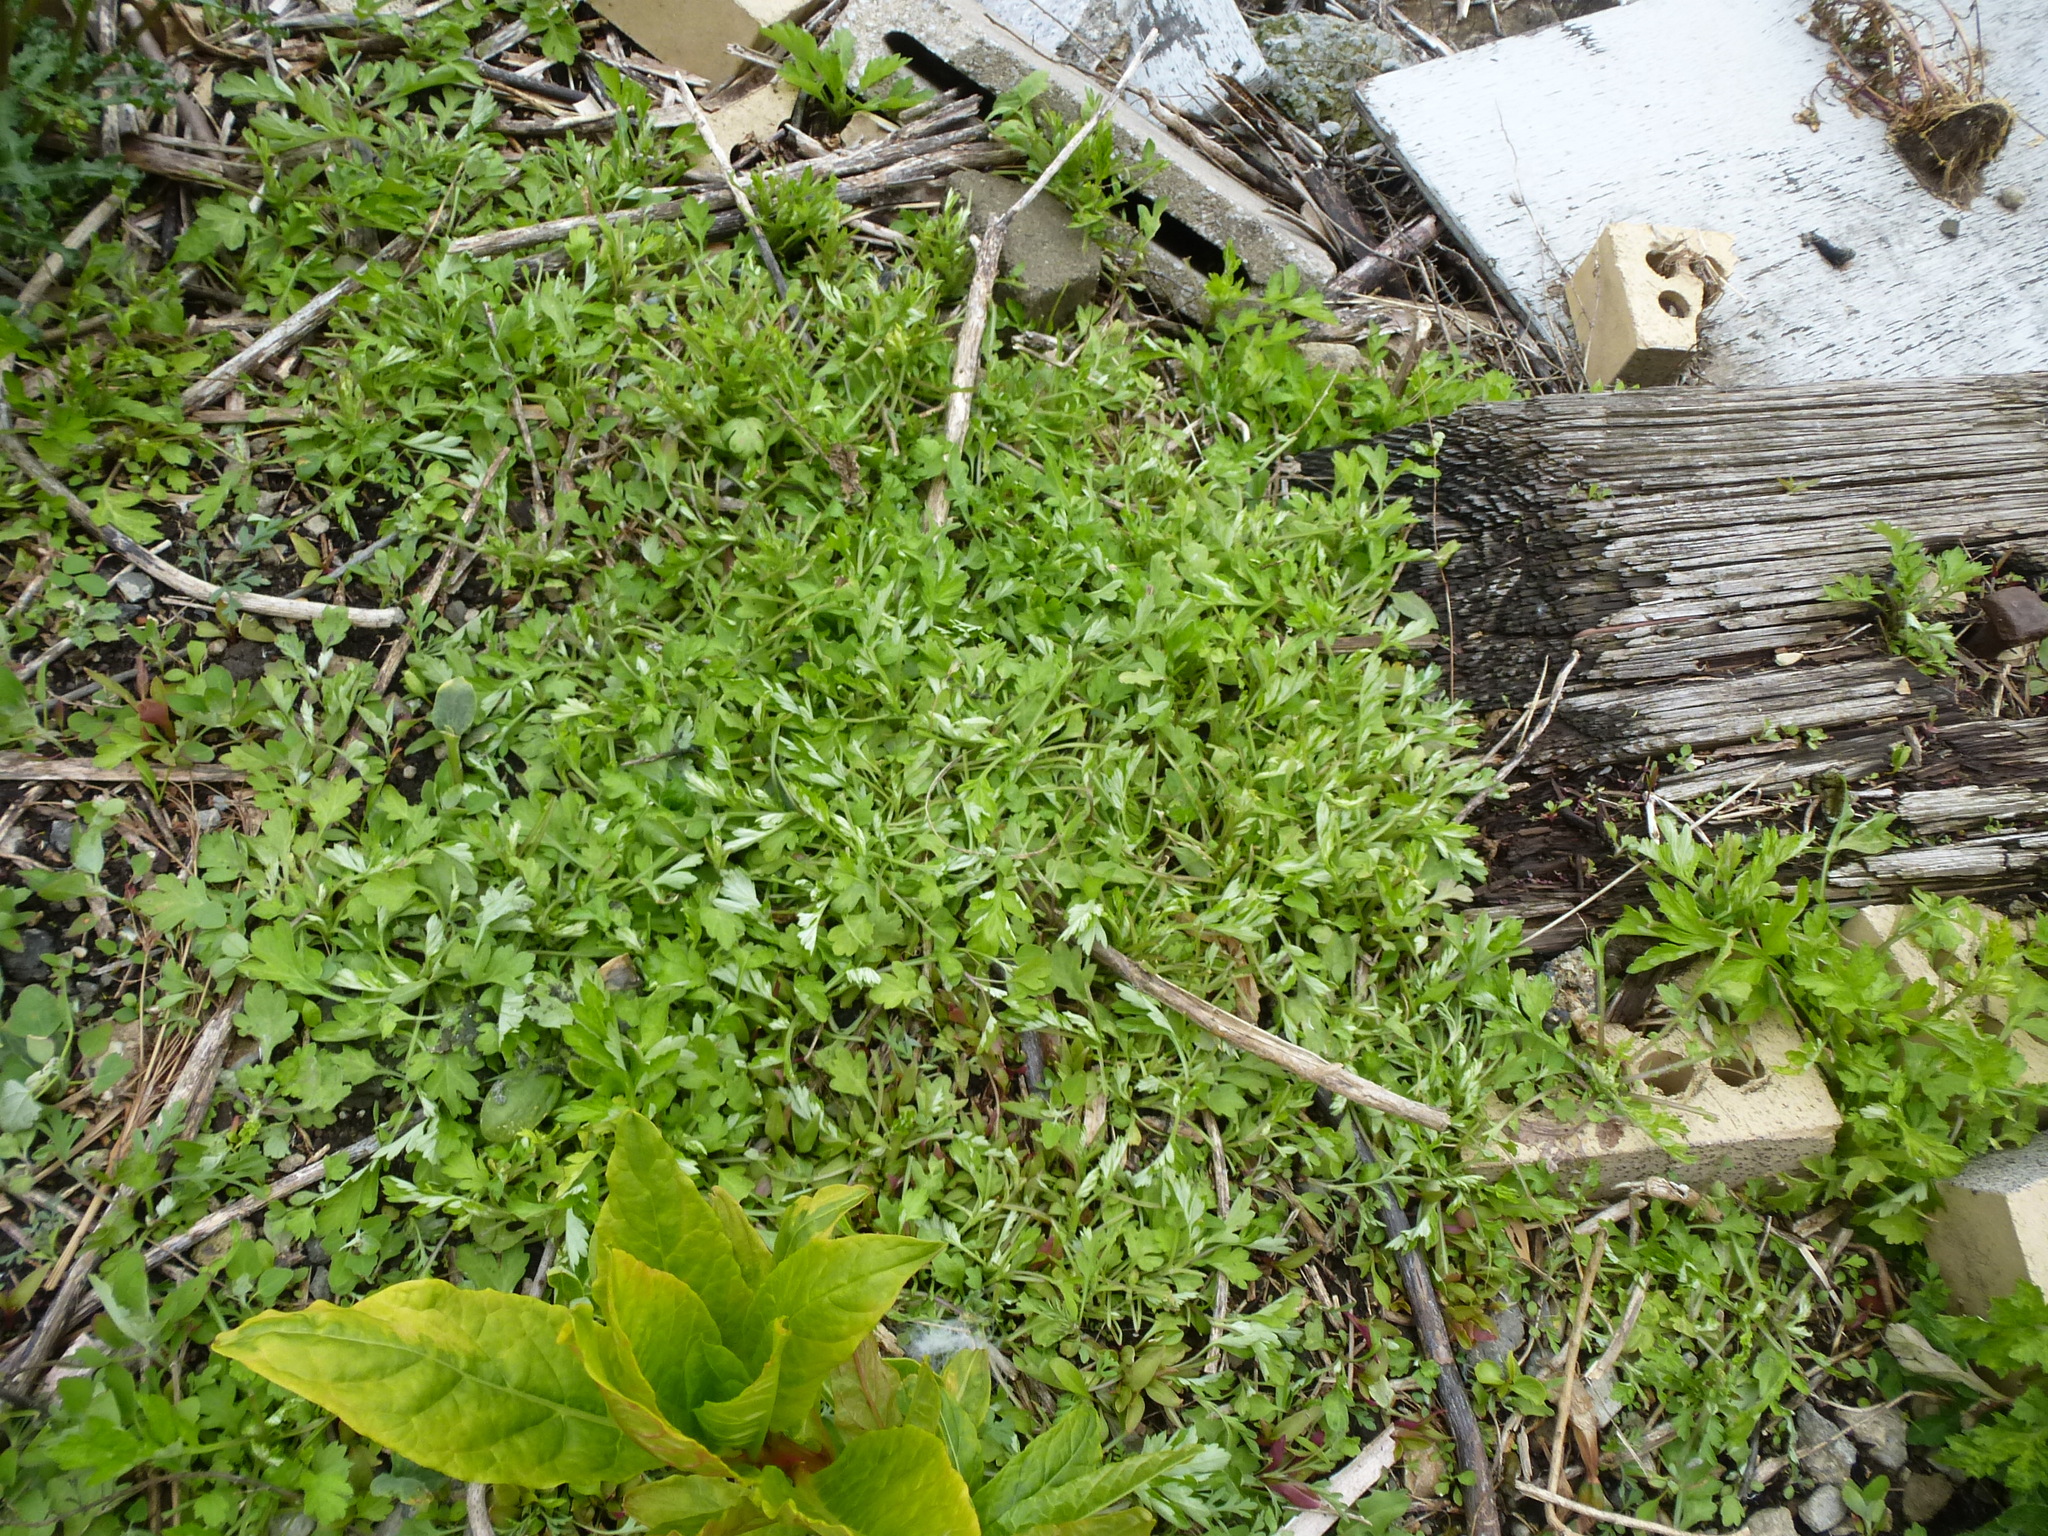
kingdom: Plantae
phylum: Tracheophyta
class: Magnoliopsida
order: Asterales
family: Asteraceae
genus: Artemisia
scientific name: Artemisia vulgaris
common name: Mugwort
